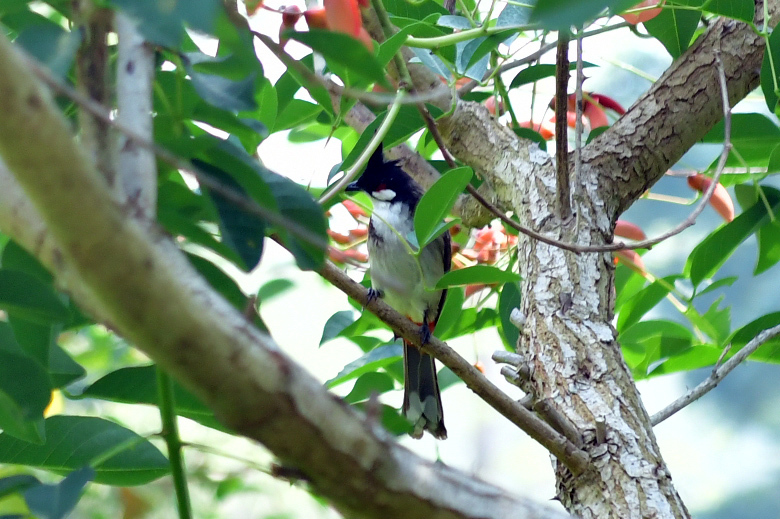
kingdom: Animalia
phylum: Chordata
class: Aves
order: Passeriformes
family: Pycnonotidae
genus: Pycnonotus
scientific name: Pycnonotus jocosus
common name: Red-whiskered bulbul
